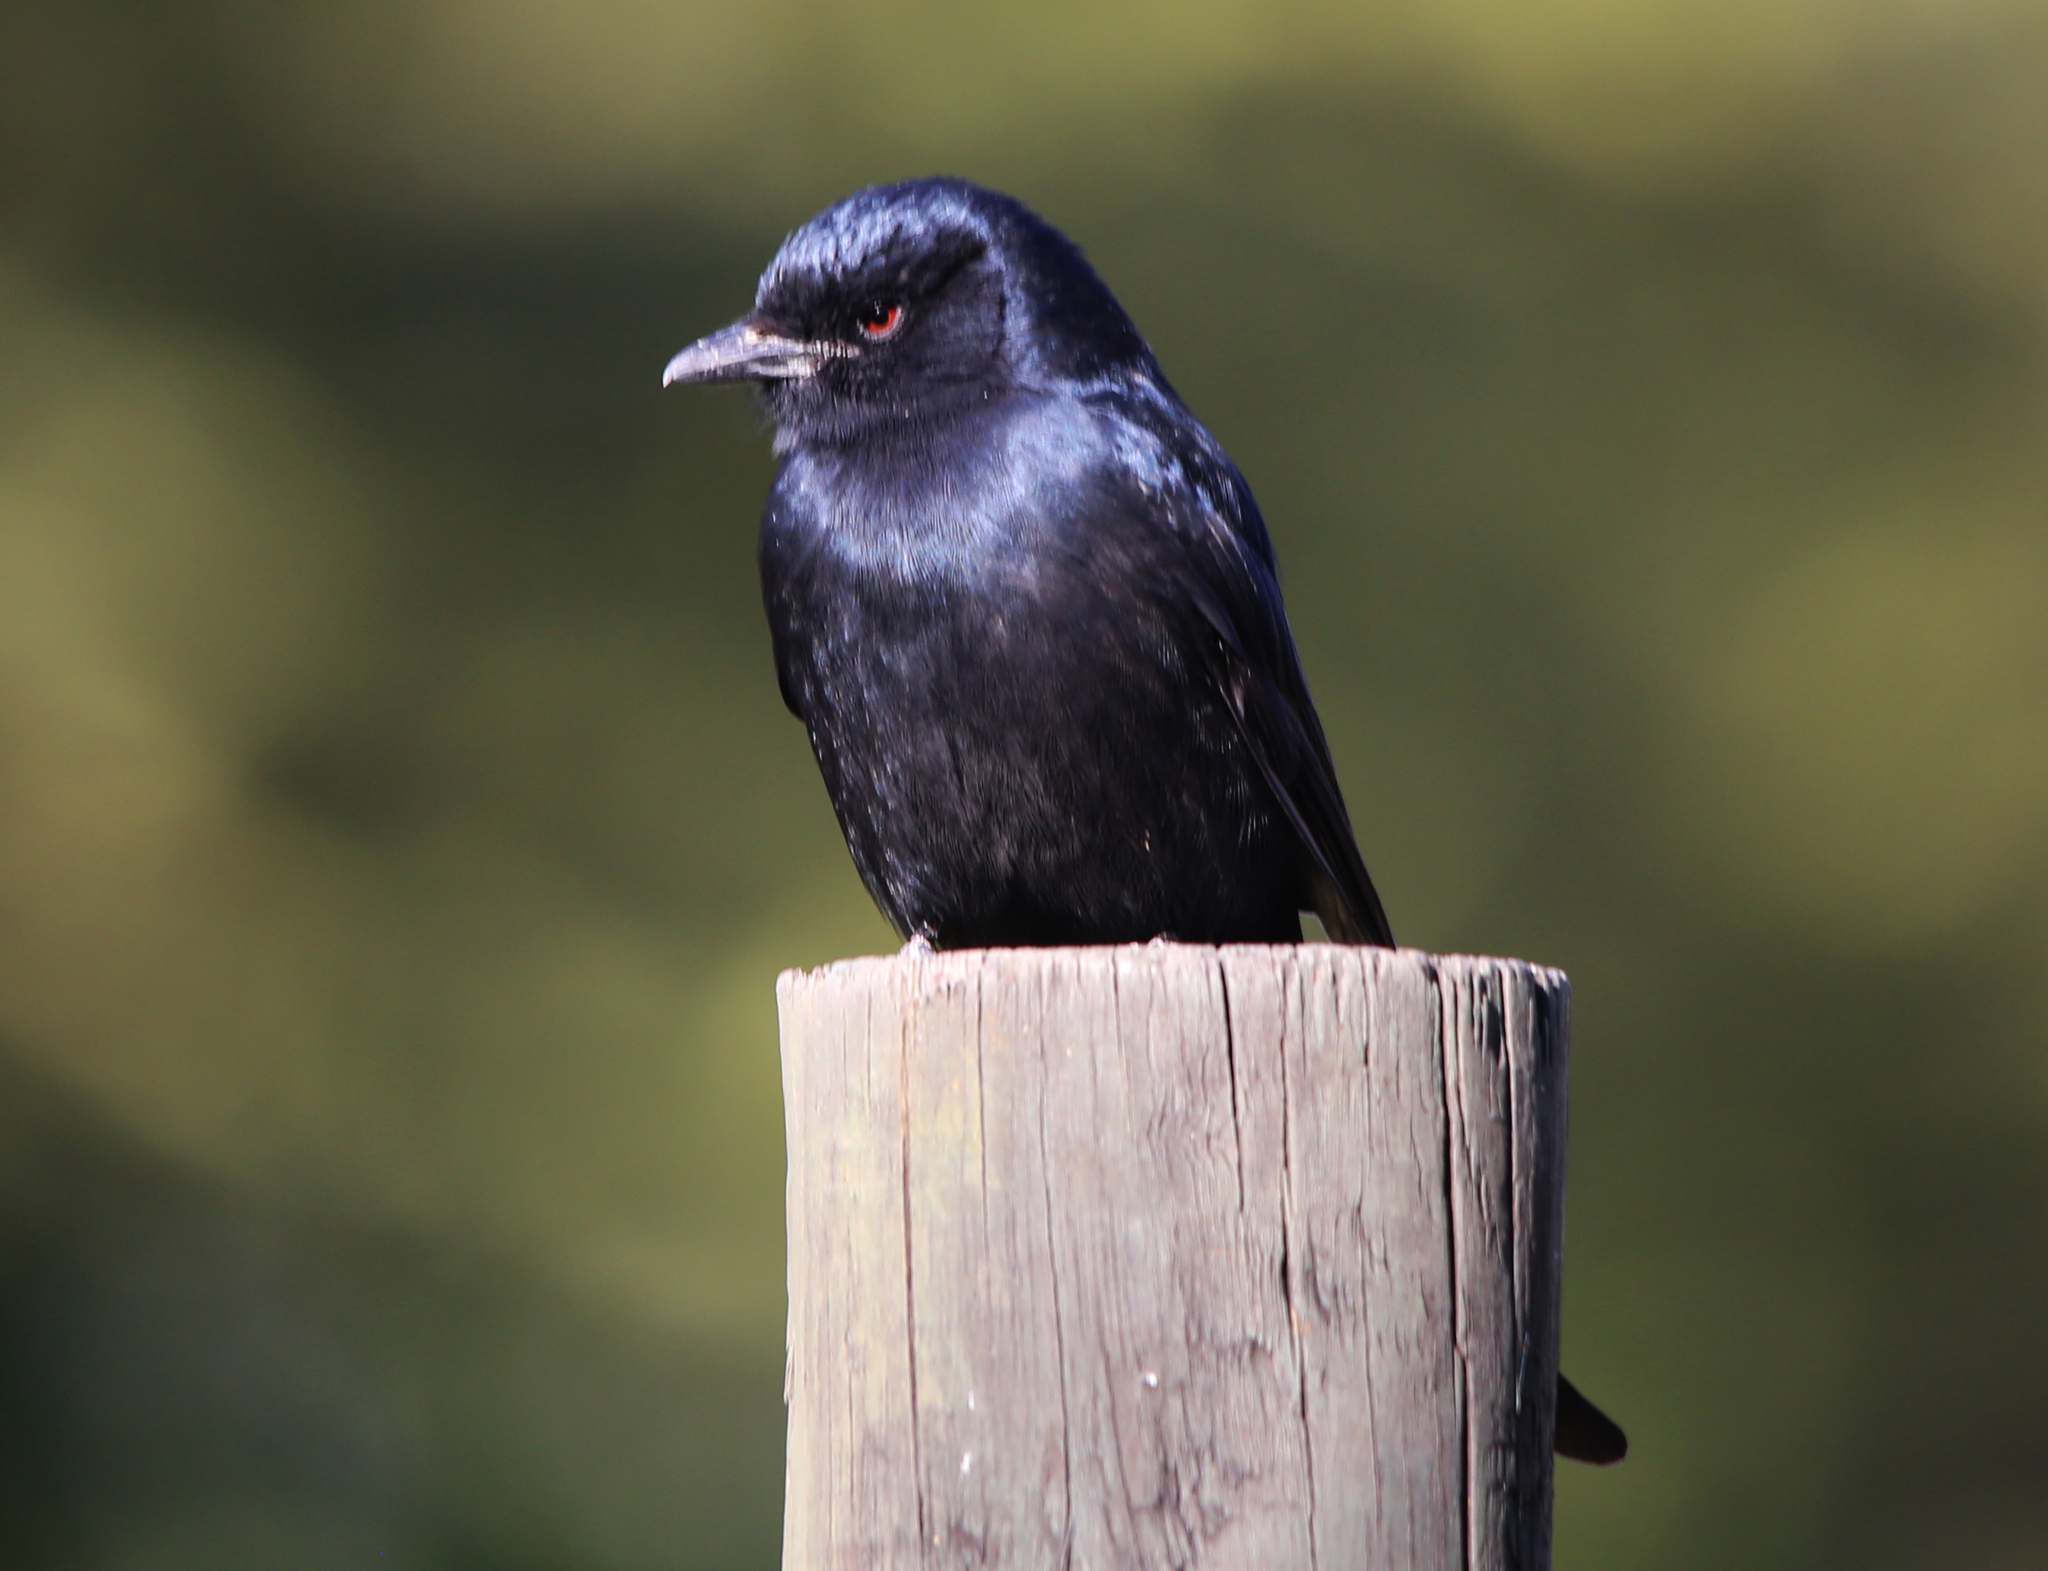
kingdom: Animalia
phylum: Chordata
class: Aves
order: Passeriformes
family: Dicruridae
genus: Dicrurus
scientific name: Dicrurus adsimilis
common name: Fork-tailed drongo
